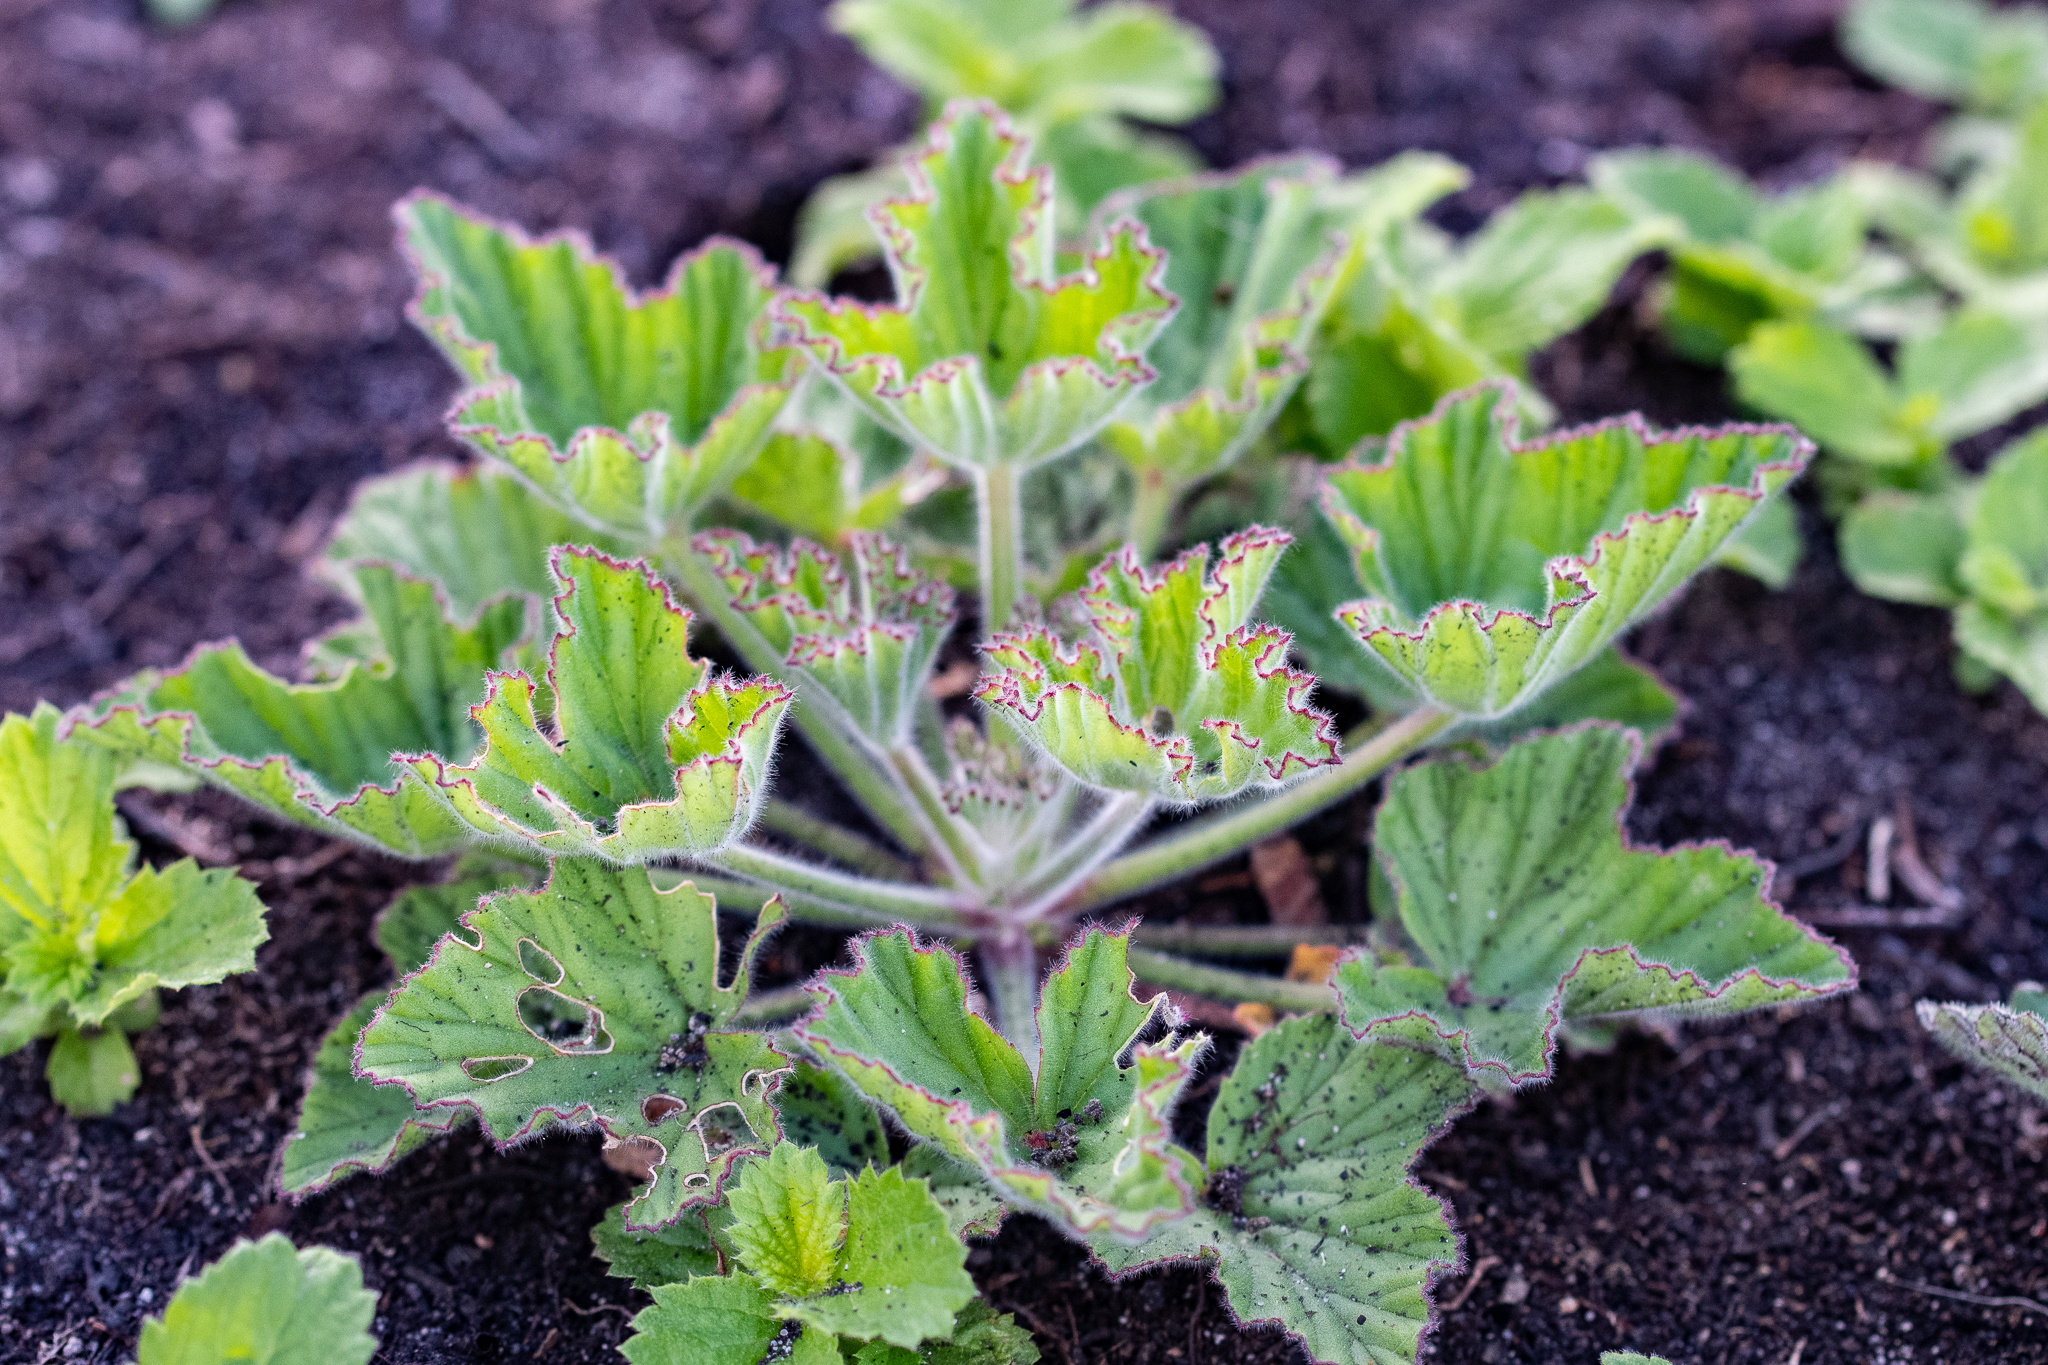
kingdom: Plantae
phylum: Tracheophyta
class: Magnoliopsida
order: Geraniales
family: Geraniaceae
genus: Pelargonium
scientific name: Pelargonium cucullatum
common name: Tree pelargonium
